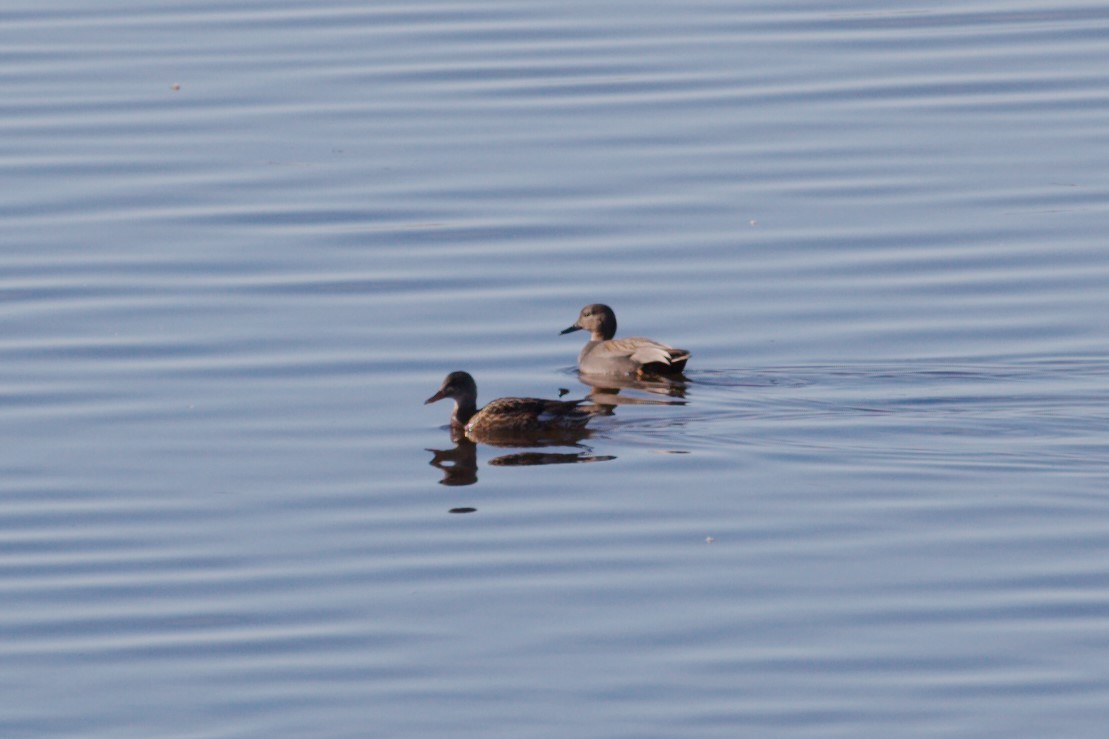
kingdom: Animalia
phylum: Chordata
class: Aves
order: Anseriformes
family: Anatidae
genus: Mareca
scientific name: Mareca strepera
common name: Gadwall
